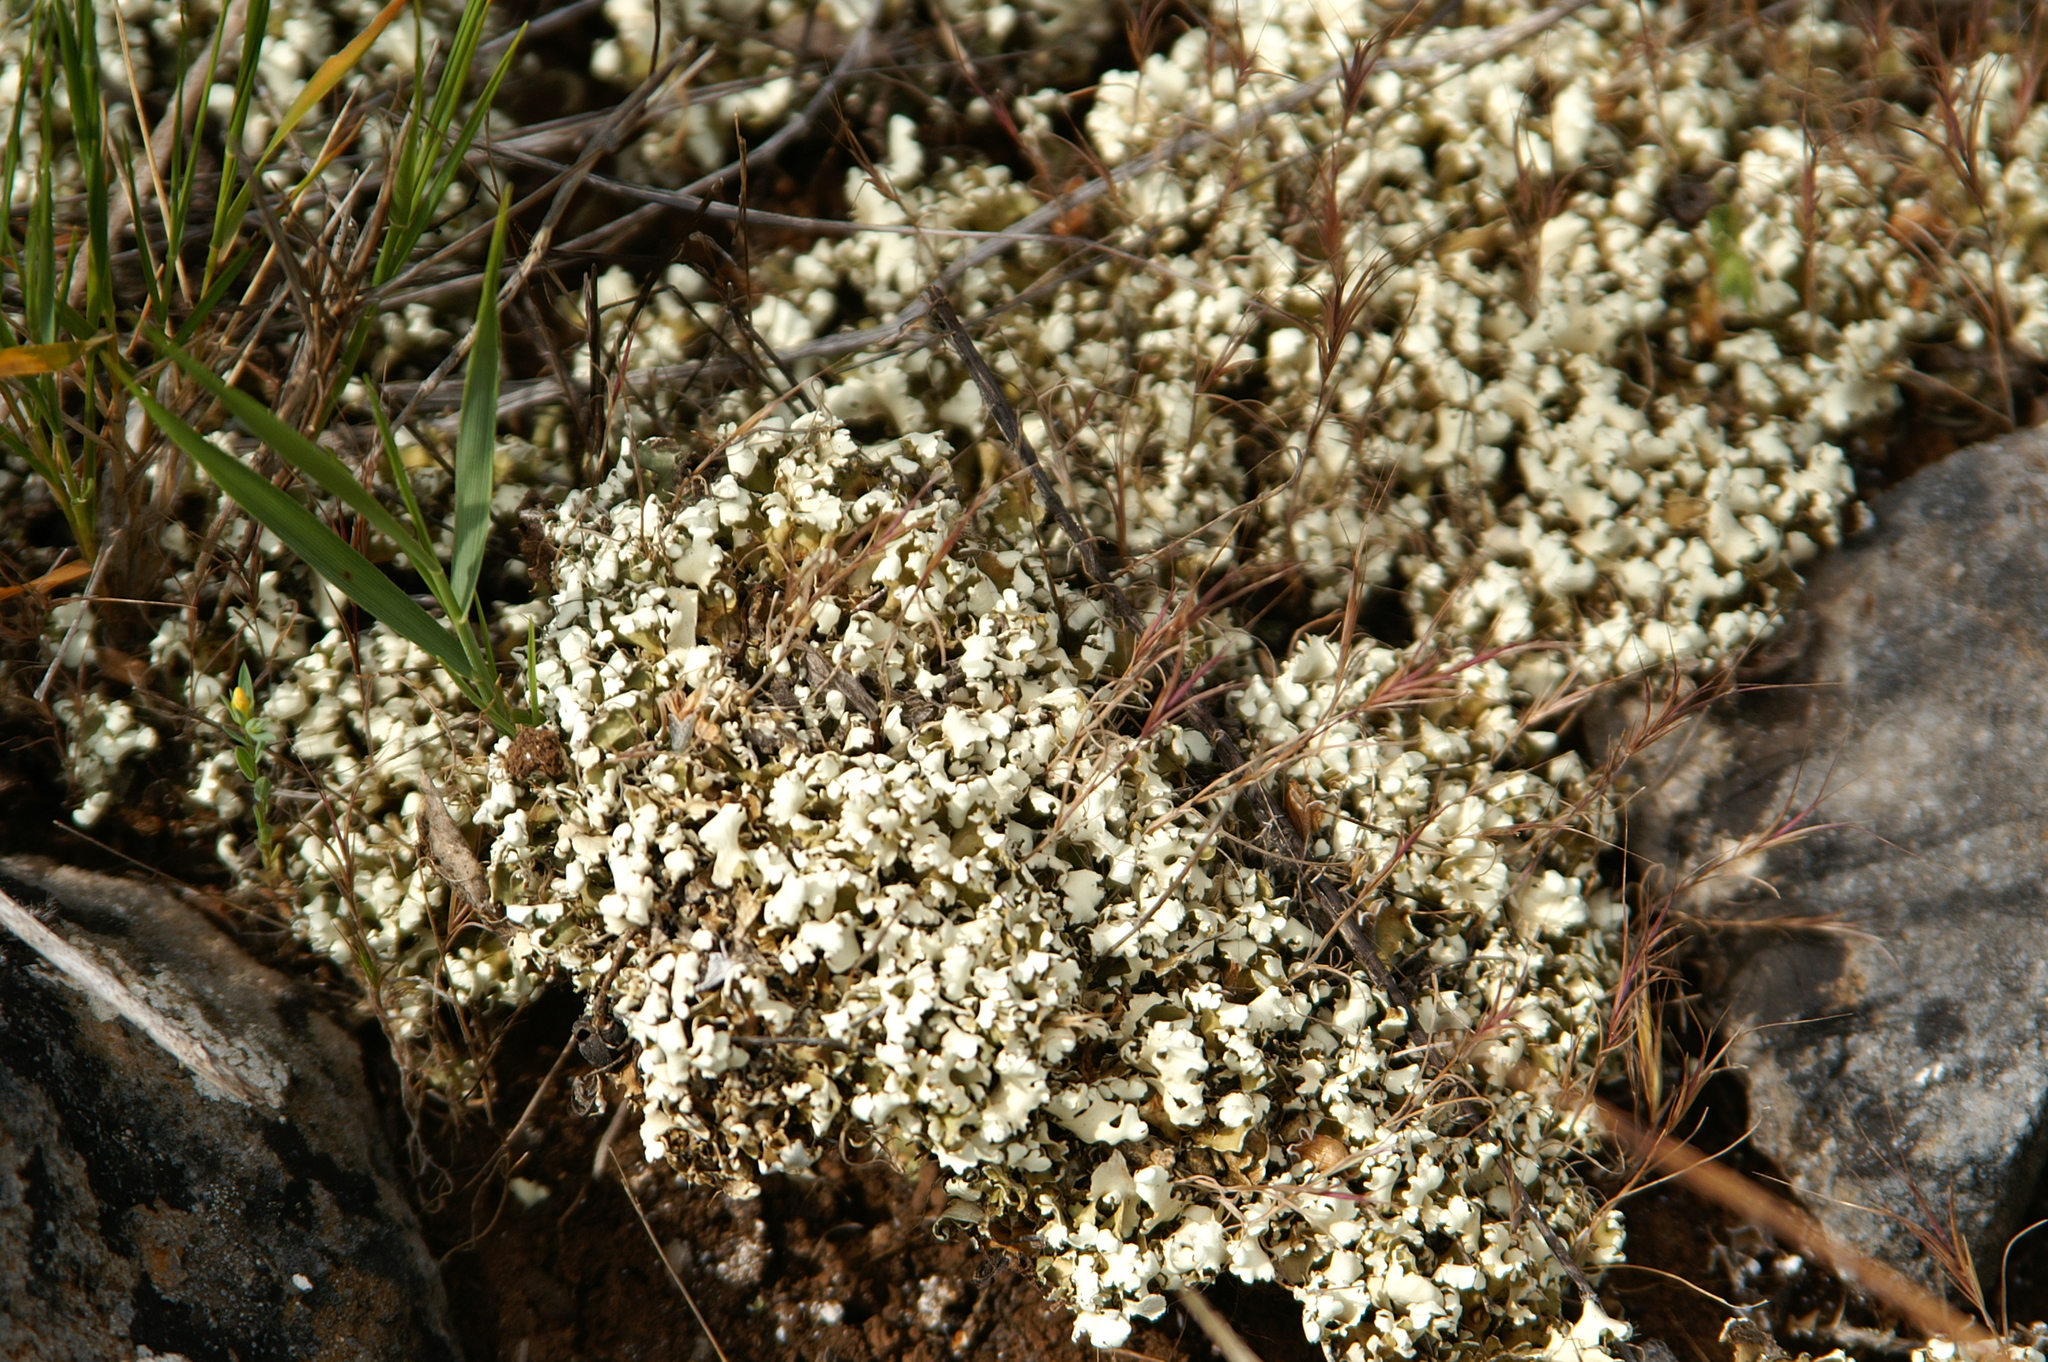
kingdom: Fungi
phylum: Ascomycota
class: Lecanoromycetes
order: Lecanorales
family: Cladoniaceae
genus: Cladonia
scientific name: Cladonia foliacea
